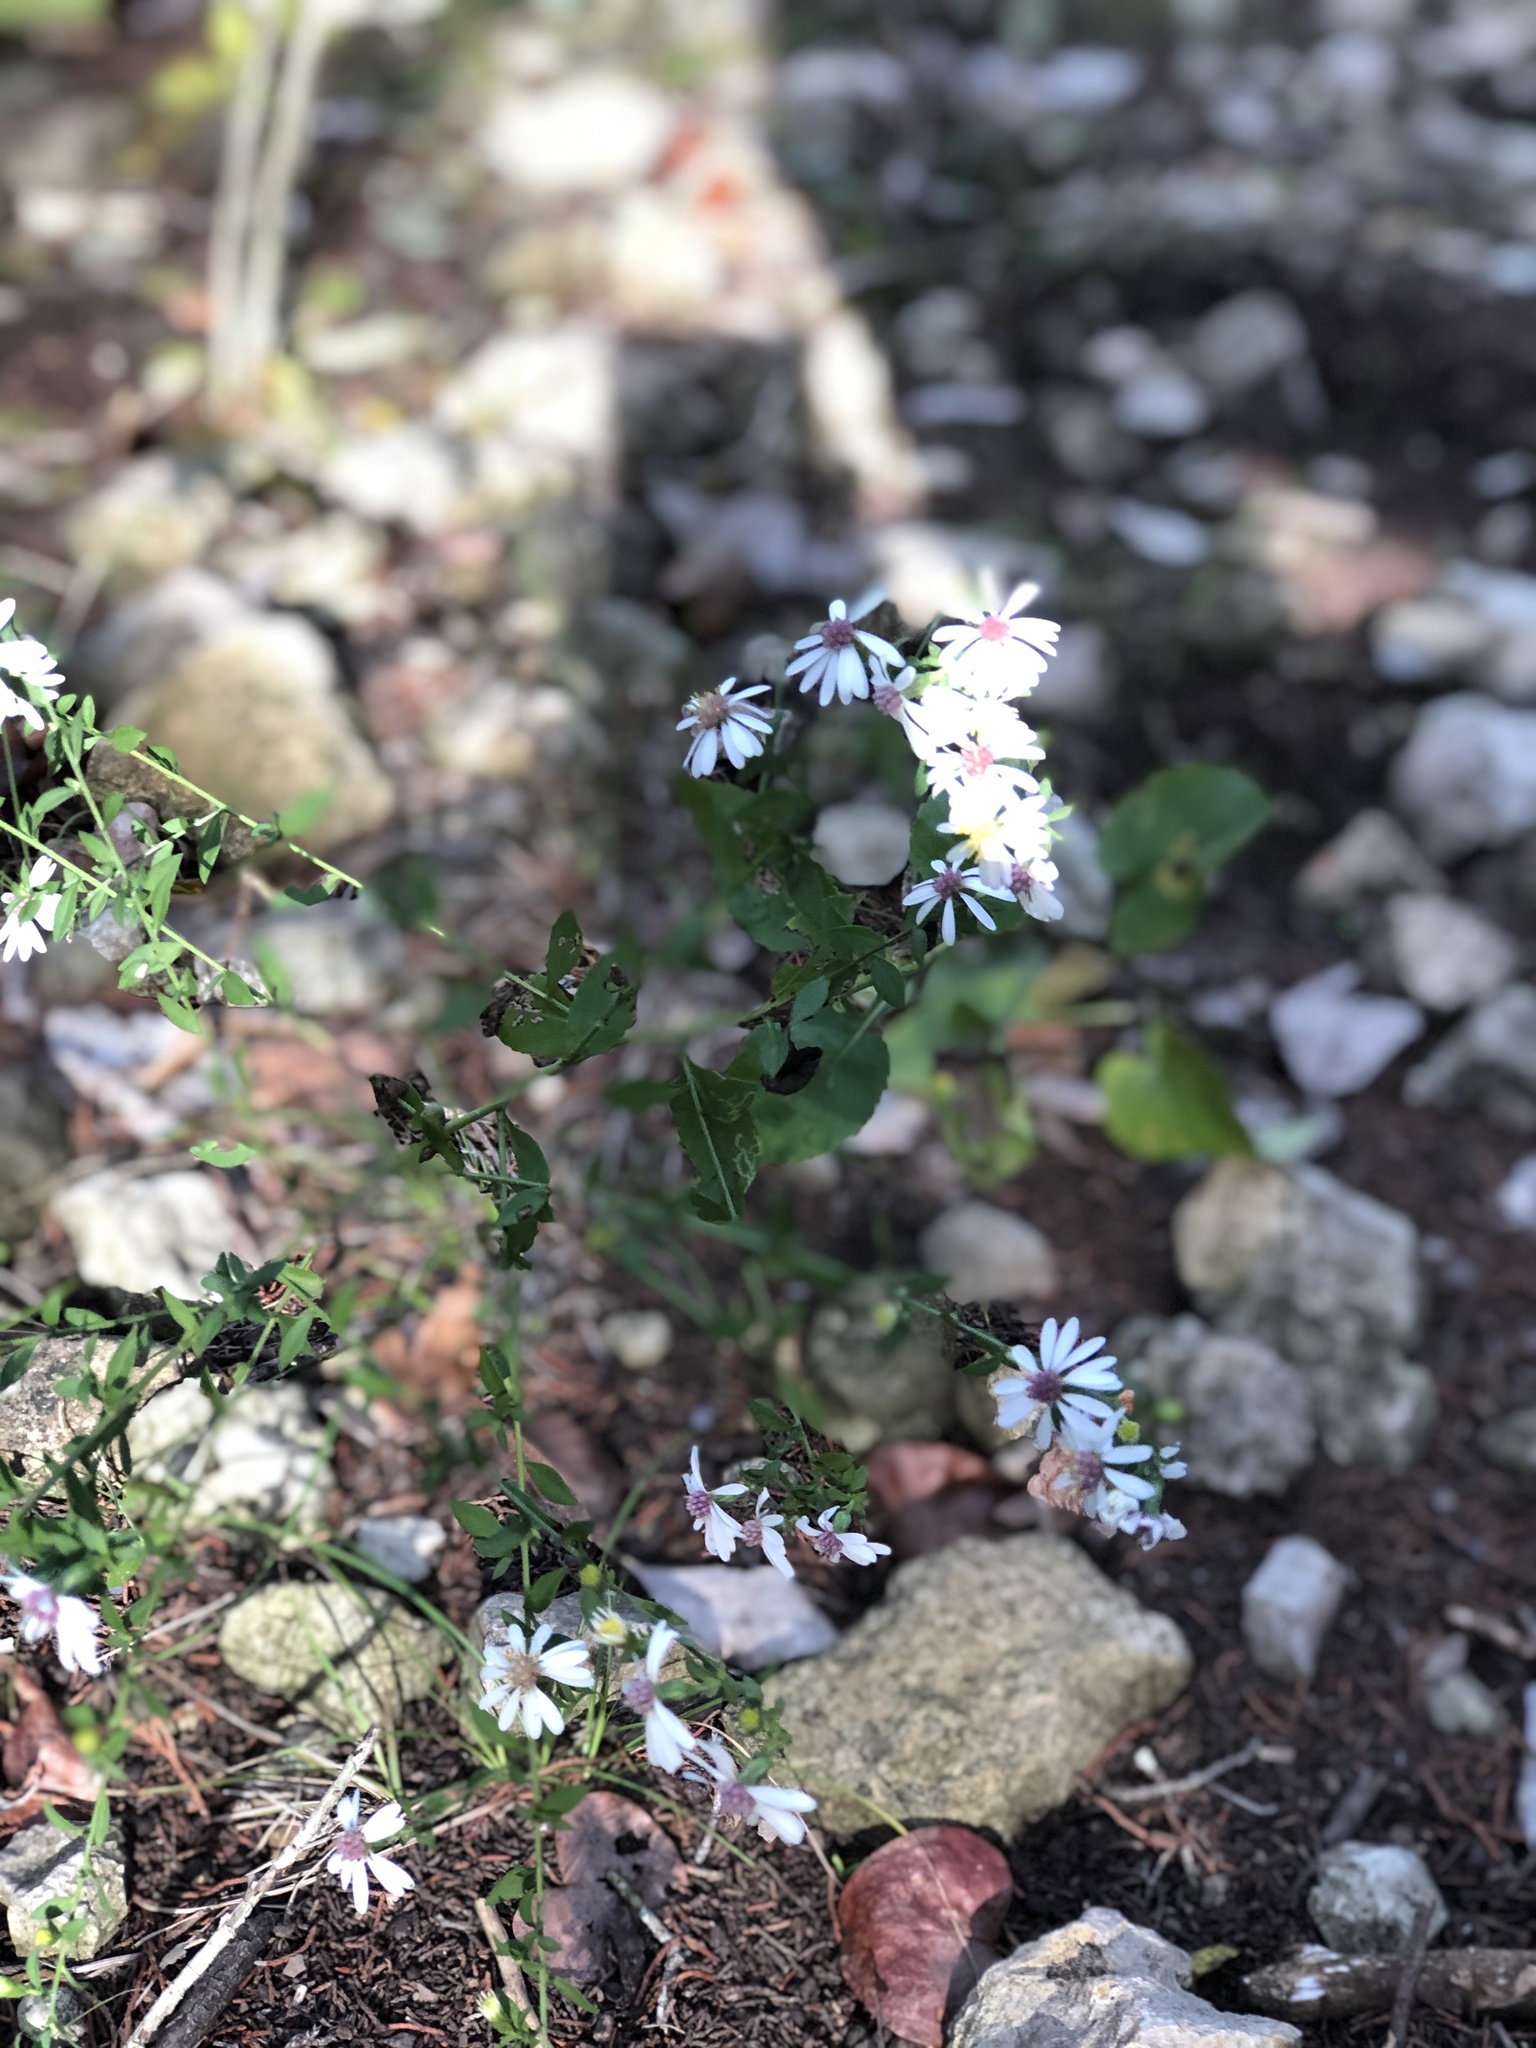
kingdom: Plantae
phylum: Tracheophyta
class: Magnoliopsida
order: Asterales
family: Asteraceae
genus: Symphyotrichum
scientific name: Symphyotrichum drummondii
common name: Drummond's aster
